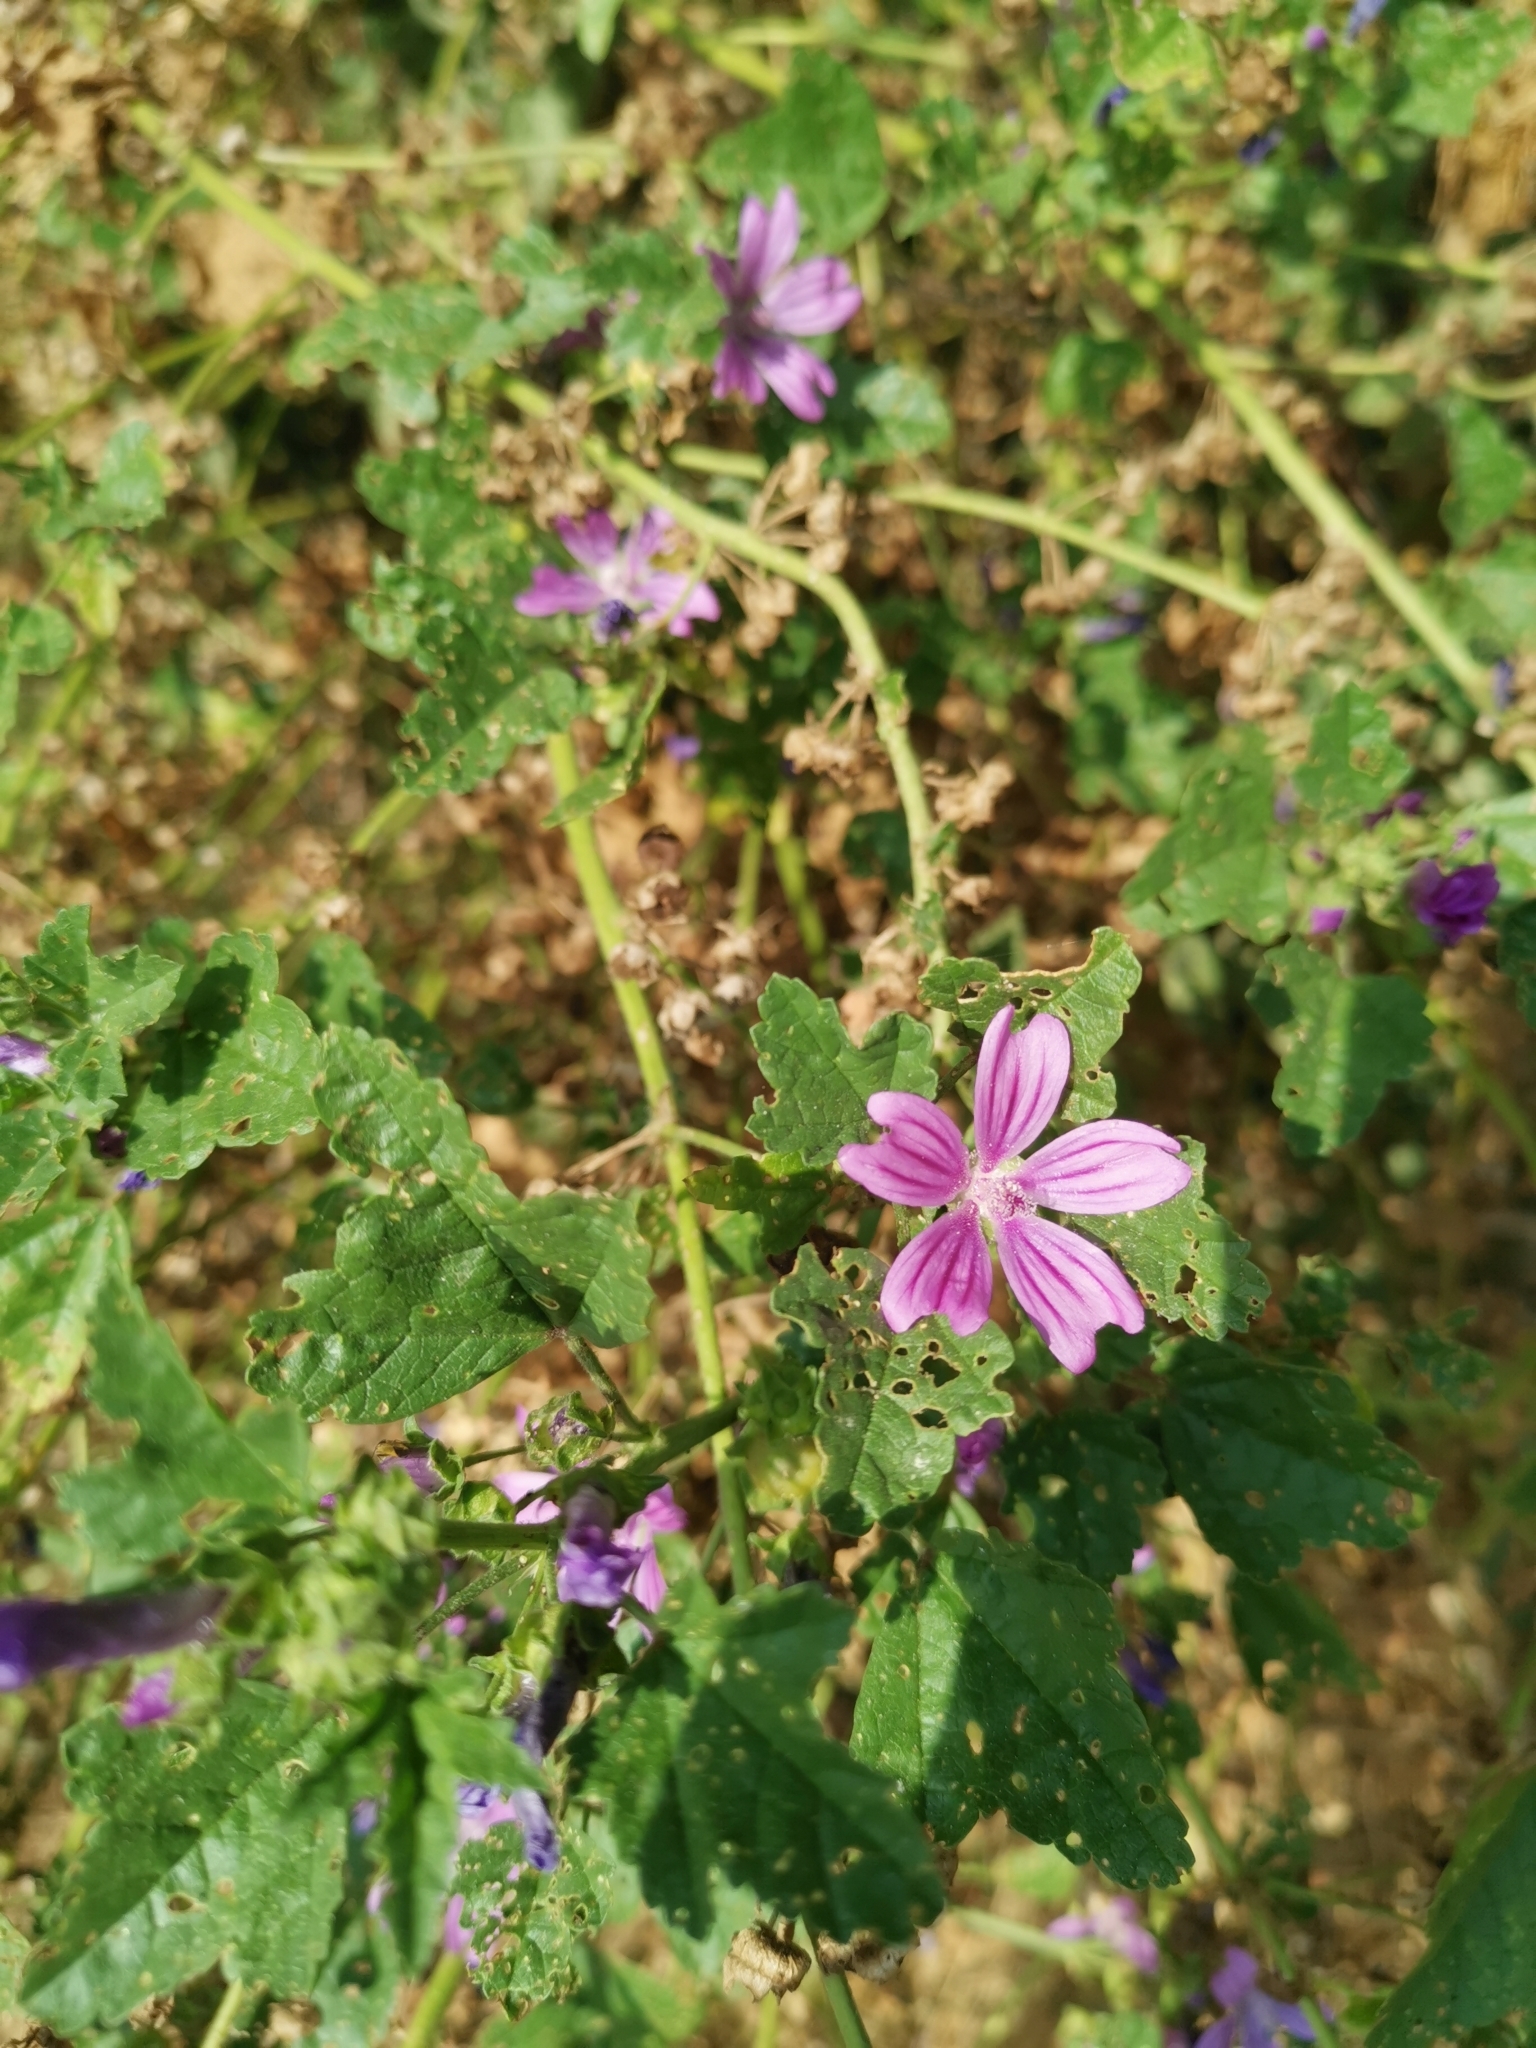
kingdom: Plantae
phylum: Tracheophyta
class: Magnoliopsida
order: Malvales
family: Malvaceae
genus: Malva
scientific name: Malva sylvestris
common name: Common mallow
